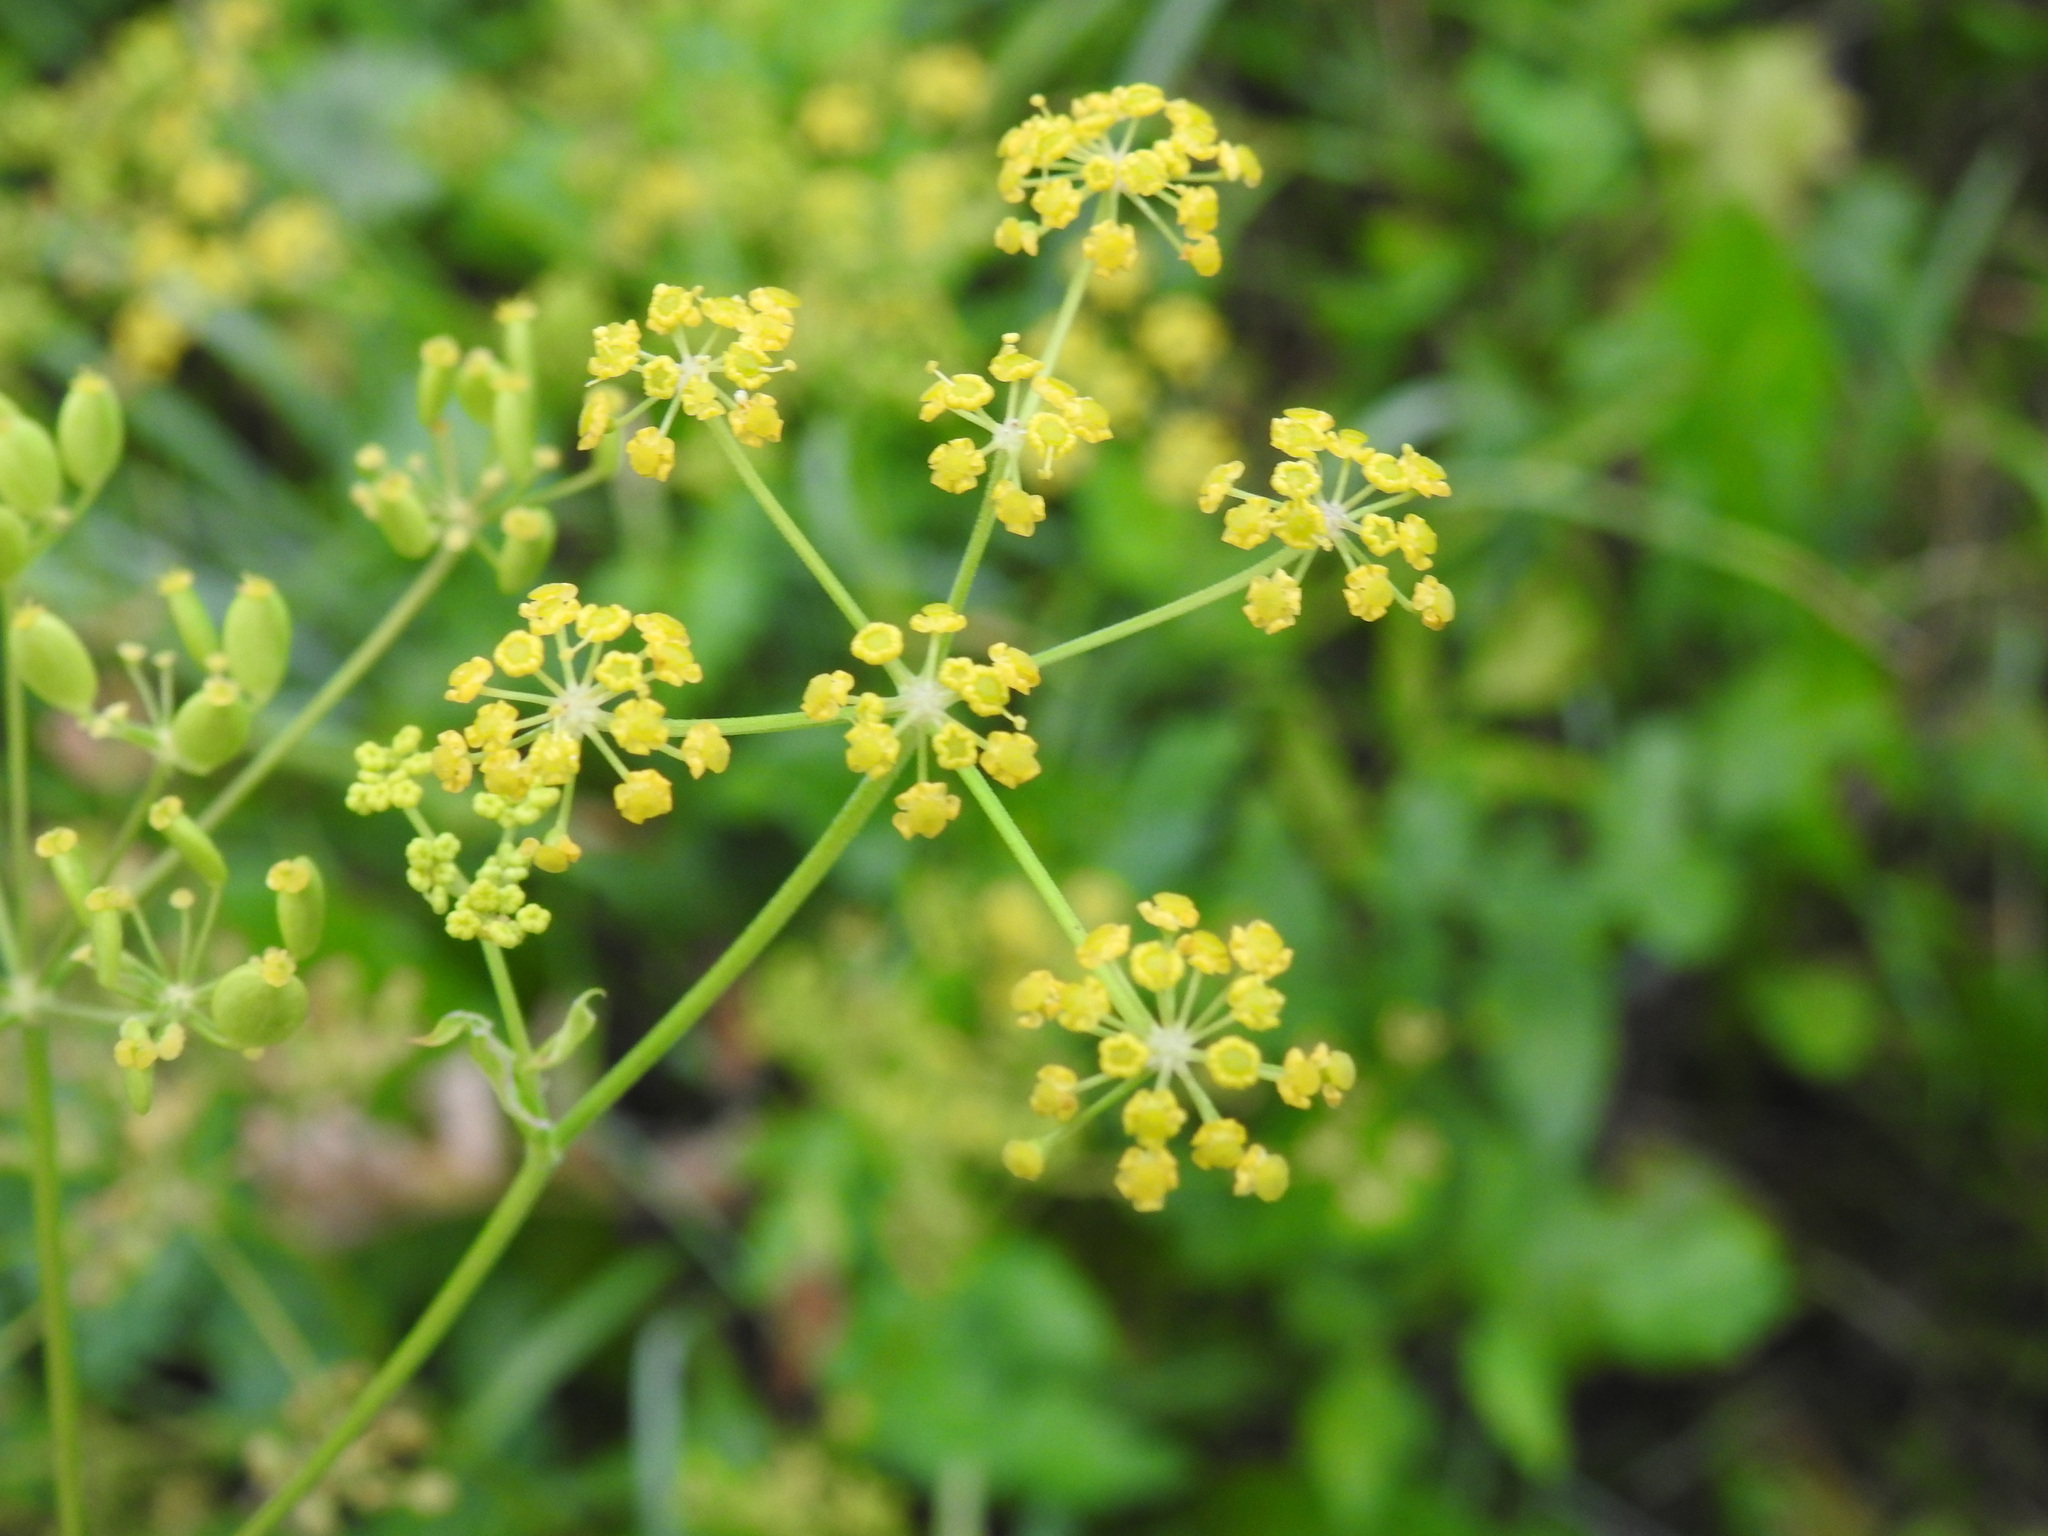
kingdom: Plantae
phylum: Tracheophyta
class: Magnoliopsida
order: Apiales
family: Apiaceae
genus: Pastinaca
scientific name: Pastinaca sativa
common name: Wild parsnip
